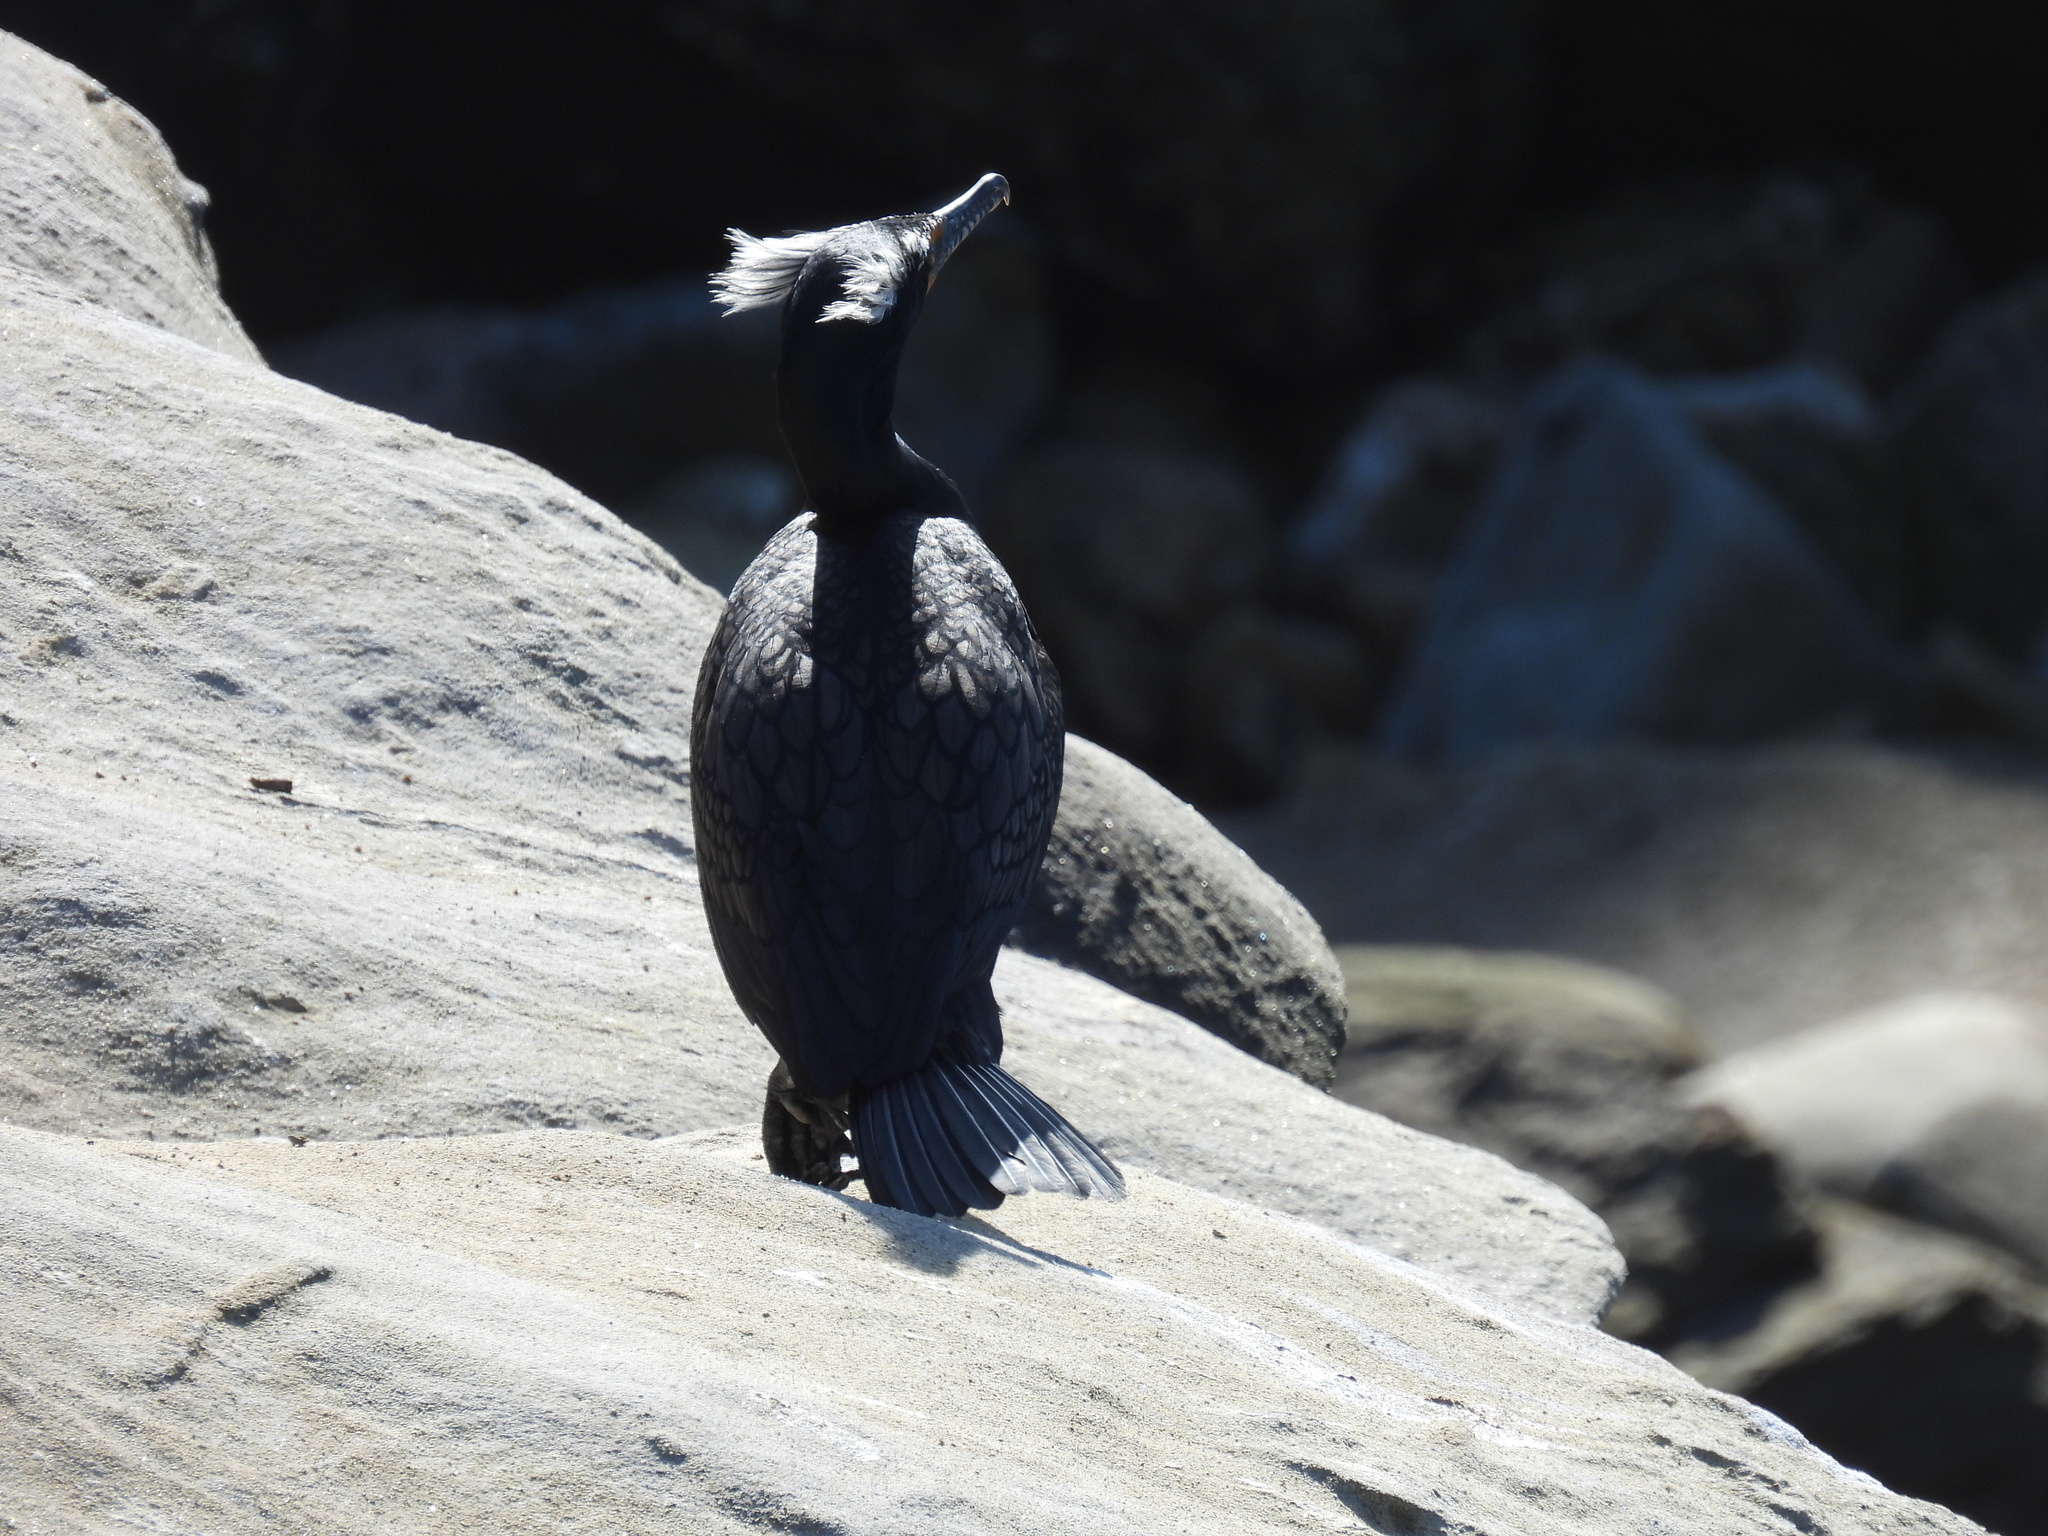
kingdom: Animalia
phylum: Chordata
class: Aves
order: Suliformes
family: Phalacrocoracidae
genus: Phalacrocorax
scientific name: Phalacrocorax auritus
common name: Double-crested cormorant
